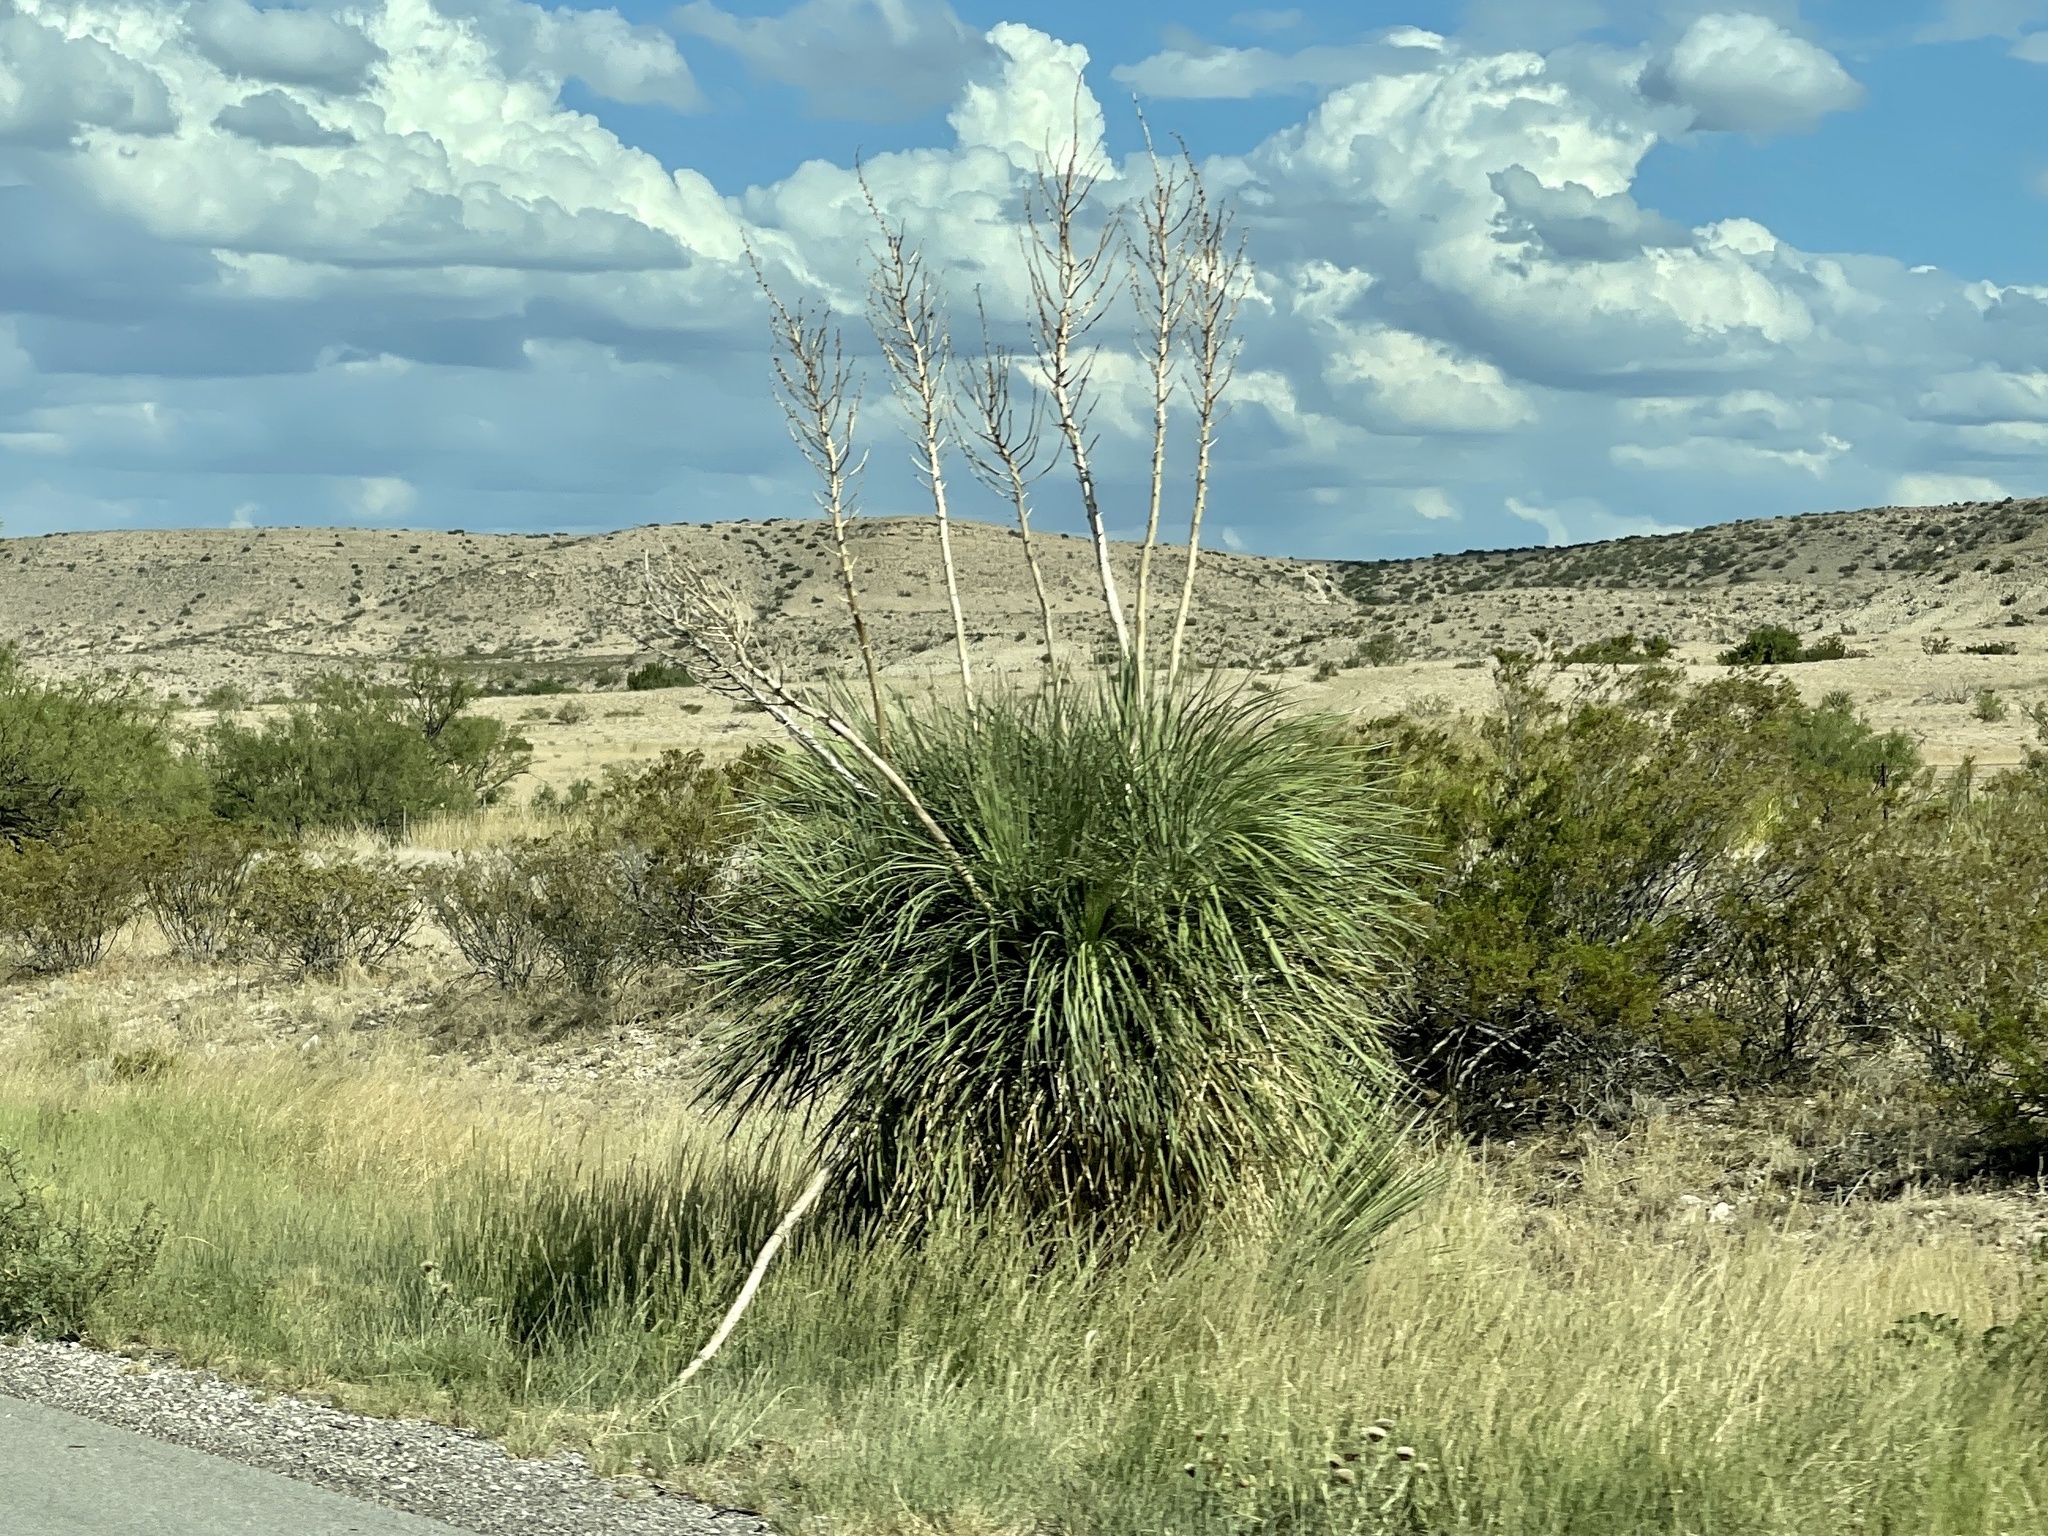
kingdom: Plantae
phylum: Tracheophyta
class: Liliopsida
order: Asparagales
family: Asparagaceae
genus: Yucca
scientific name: Yucca elata
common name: Palmella
